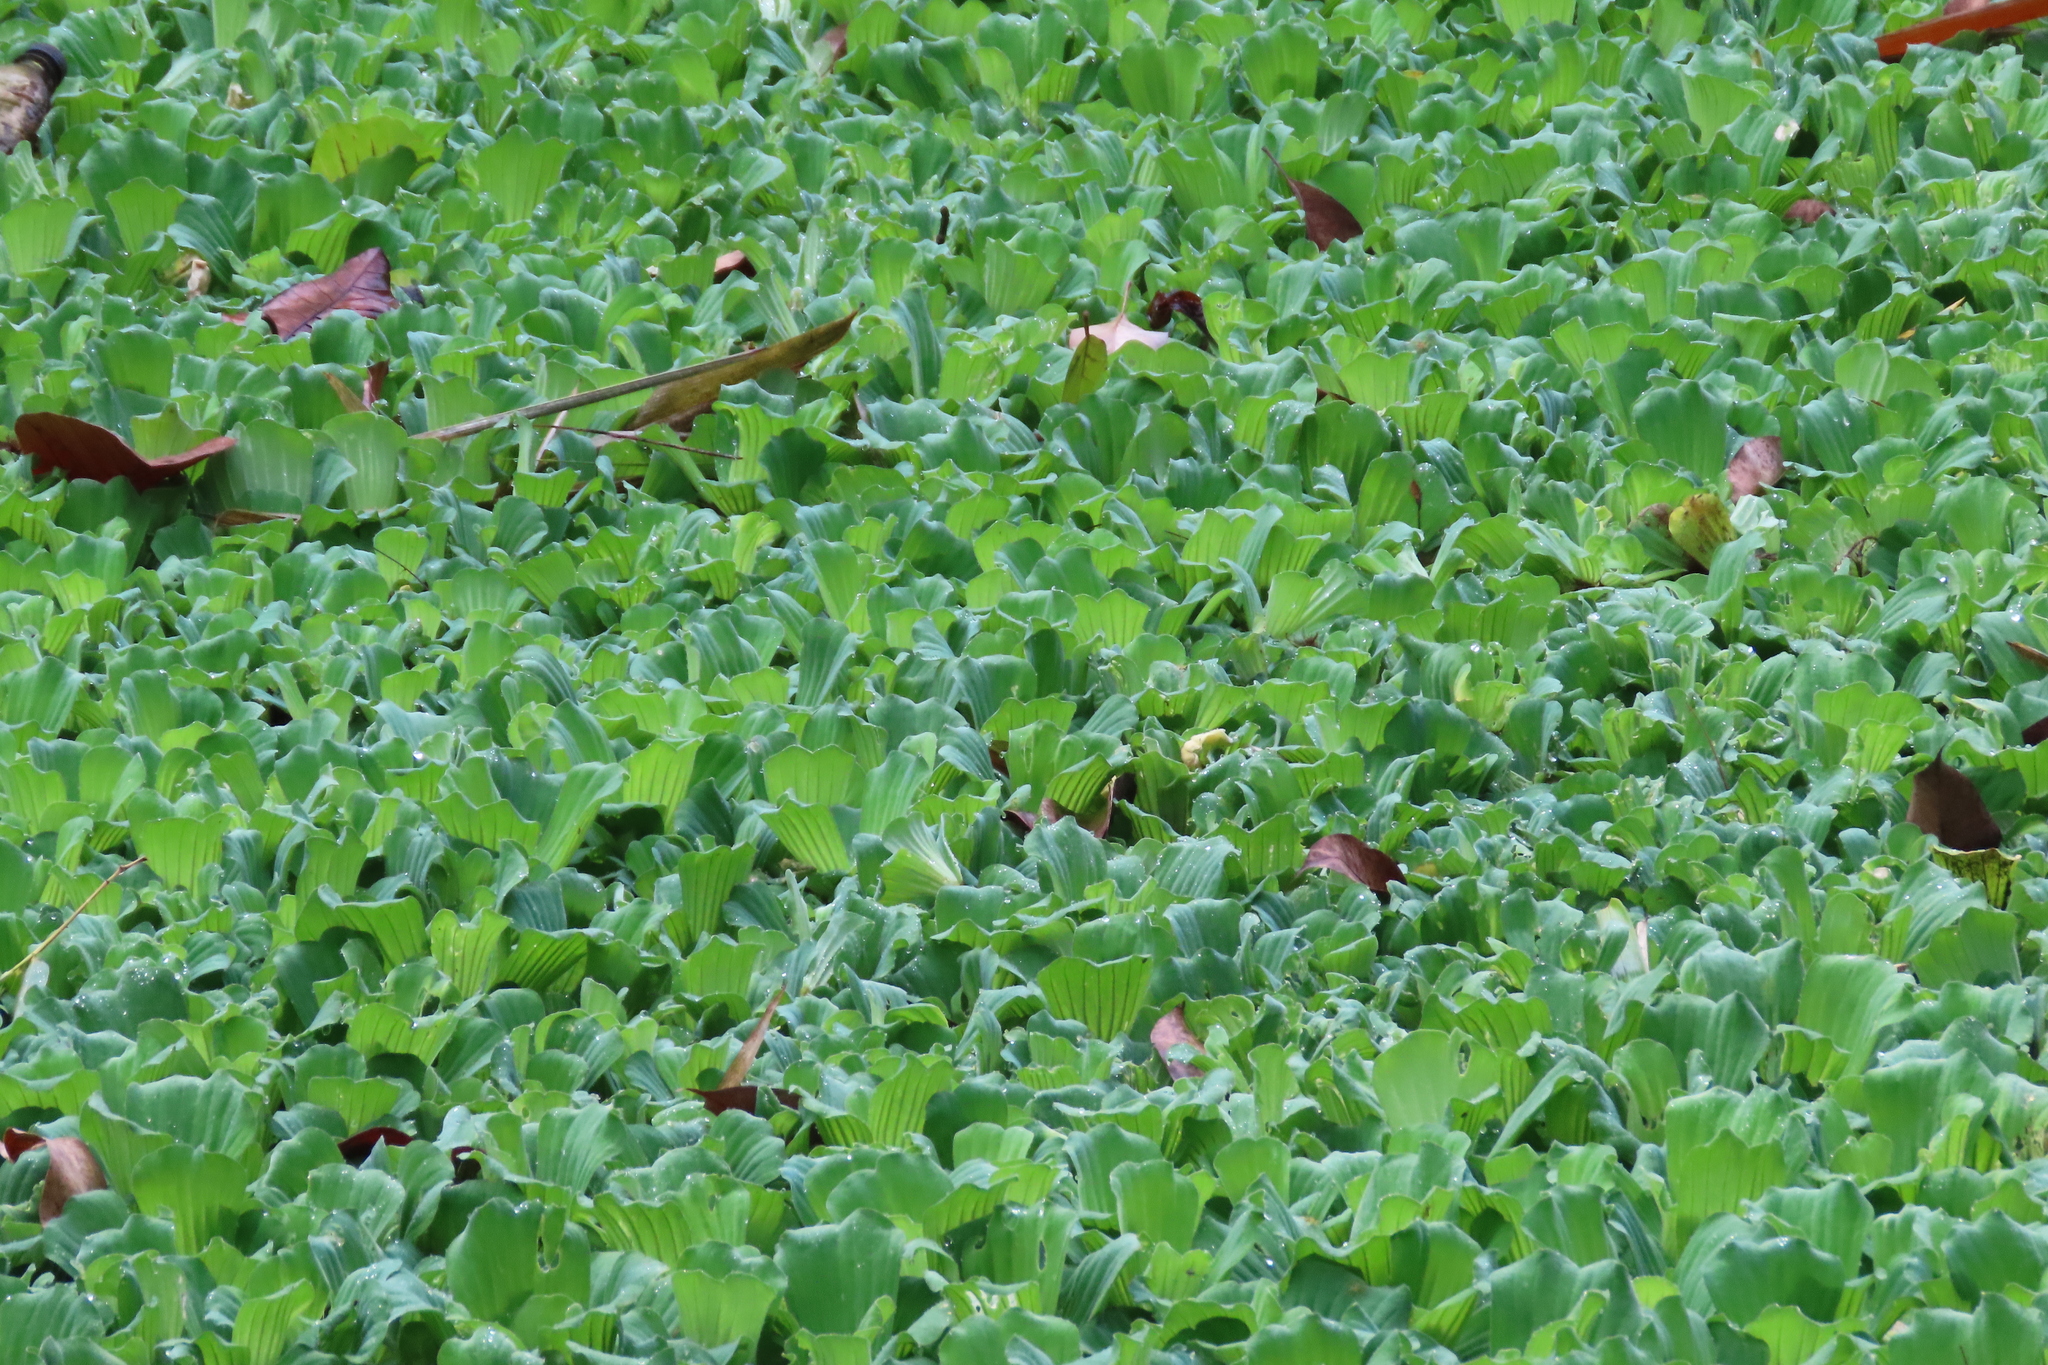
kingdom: Plantae
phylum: Tracheophyta
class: Liliopsida
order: Alismatales
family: Araceae
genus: Pistia
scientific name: Pistia stratiotes
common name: Water lettuce
